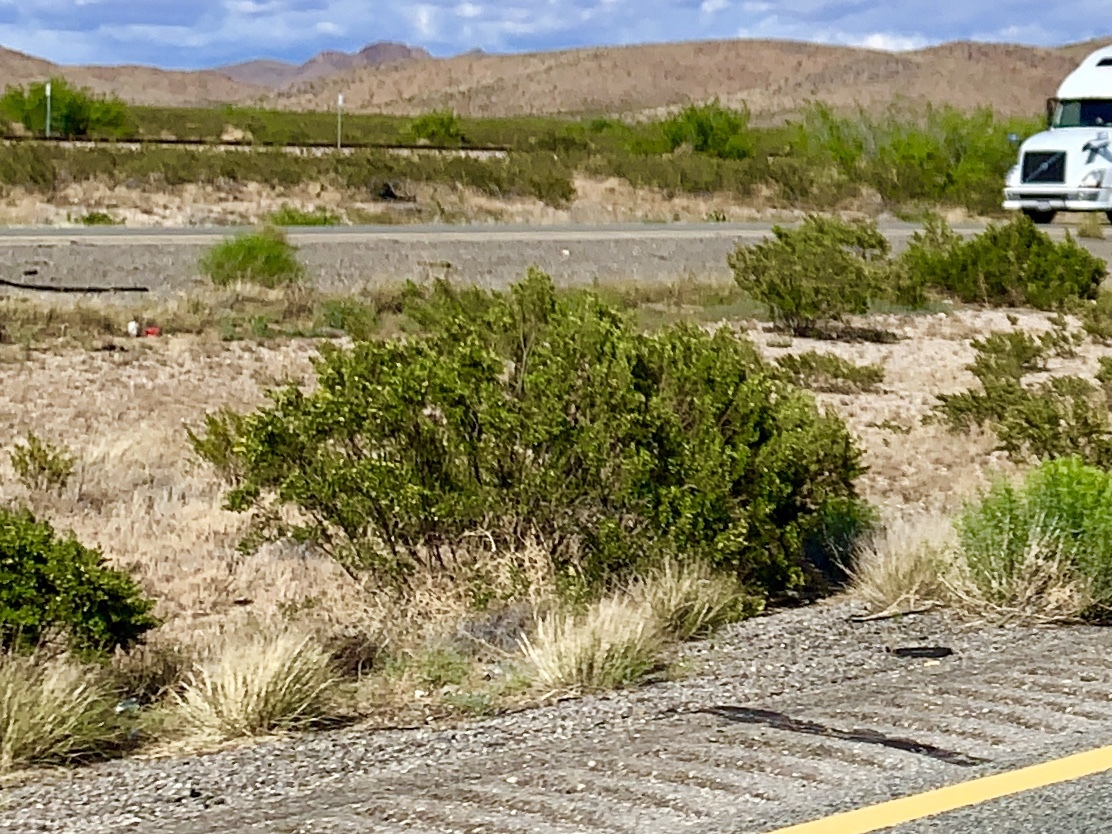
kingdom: Plantae
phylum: Tracheophyta
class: Magnoliopsida
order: Zygophyllales
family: Zygophyllaceae
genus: Larrea
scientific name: Larrea tridentata
